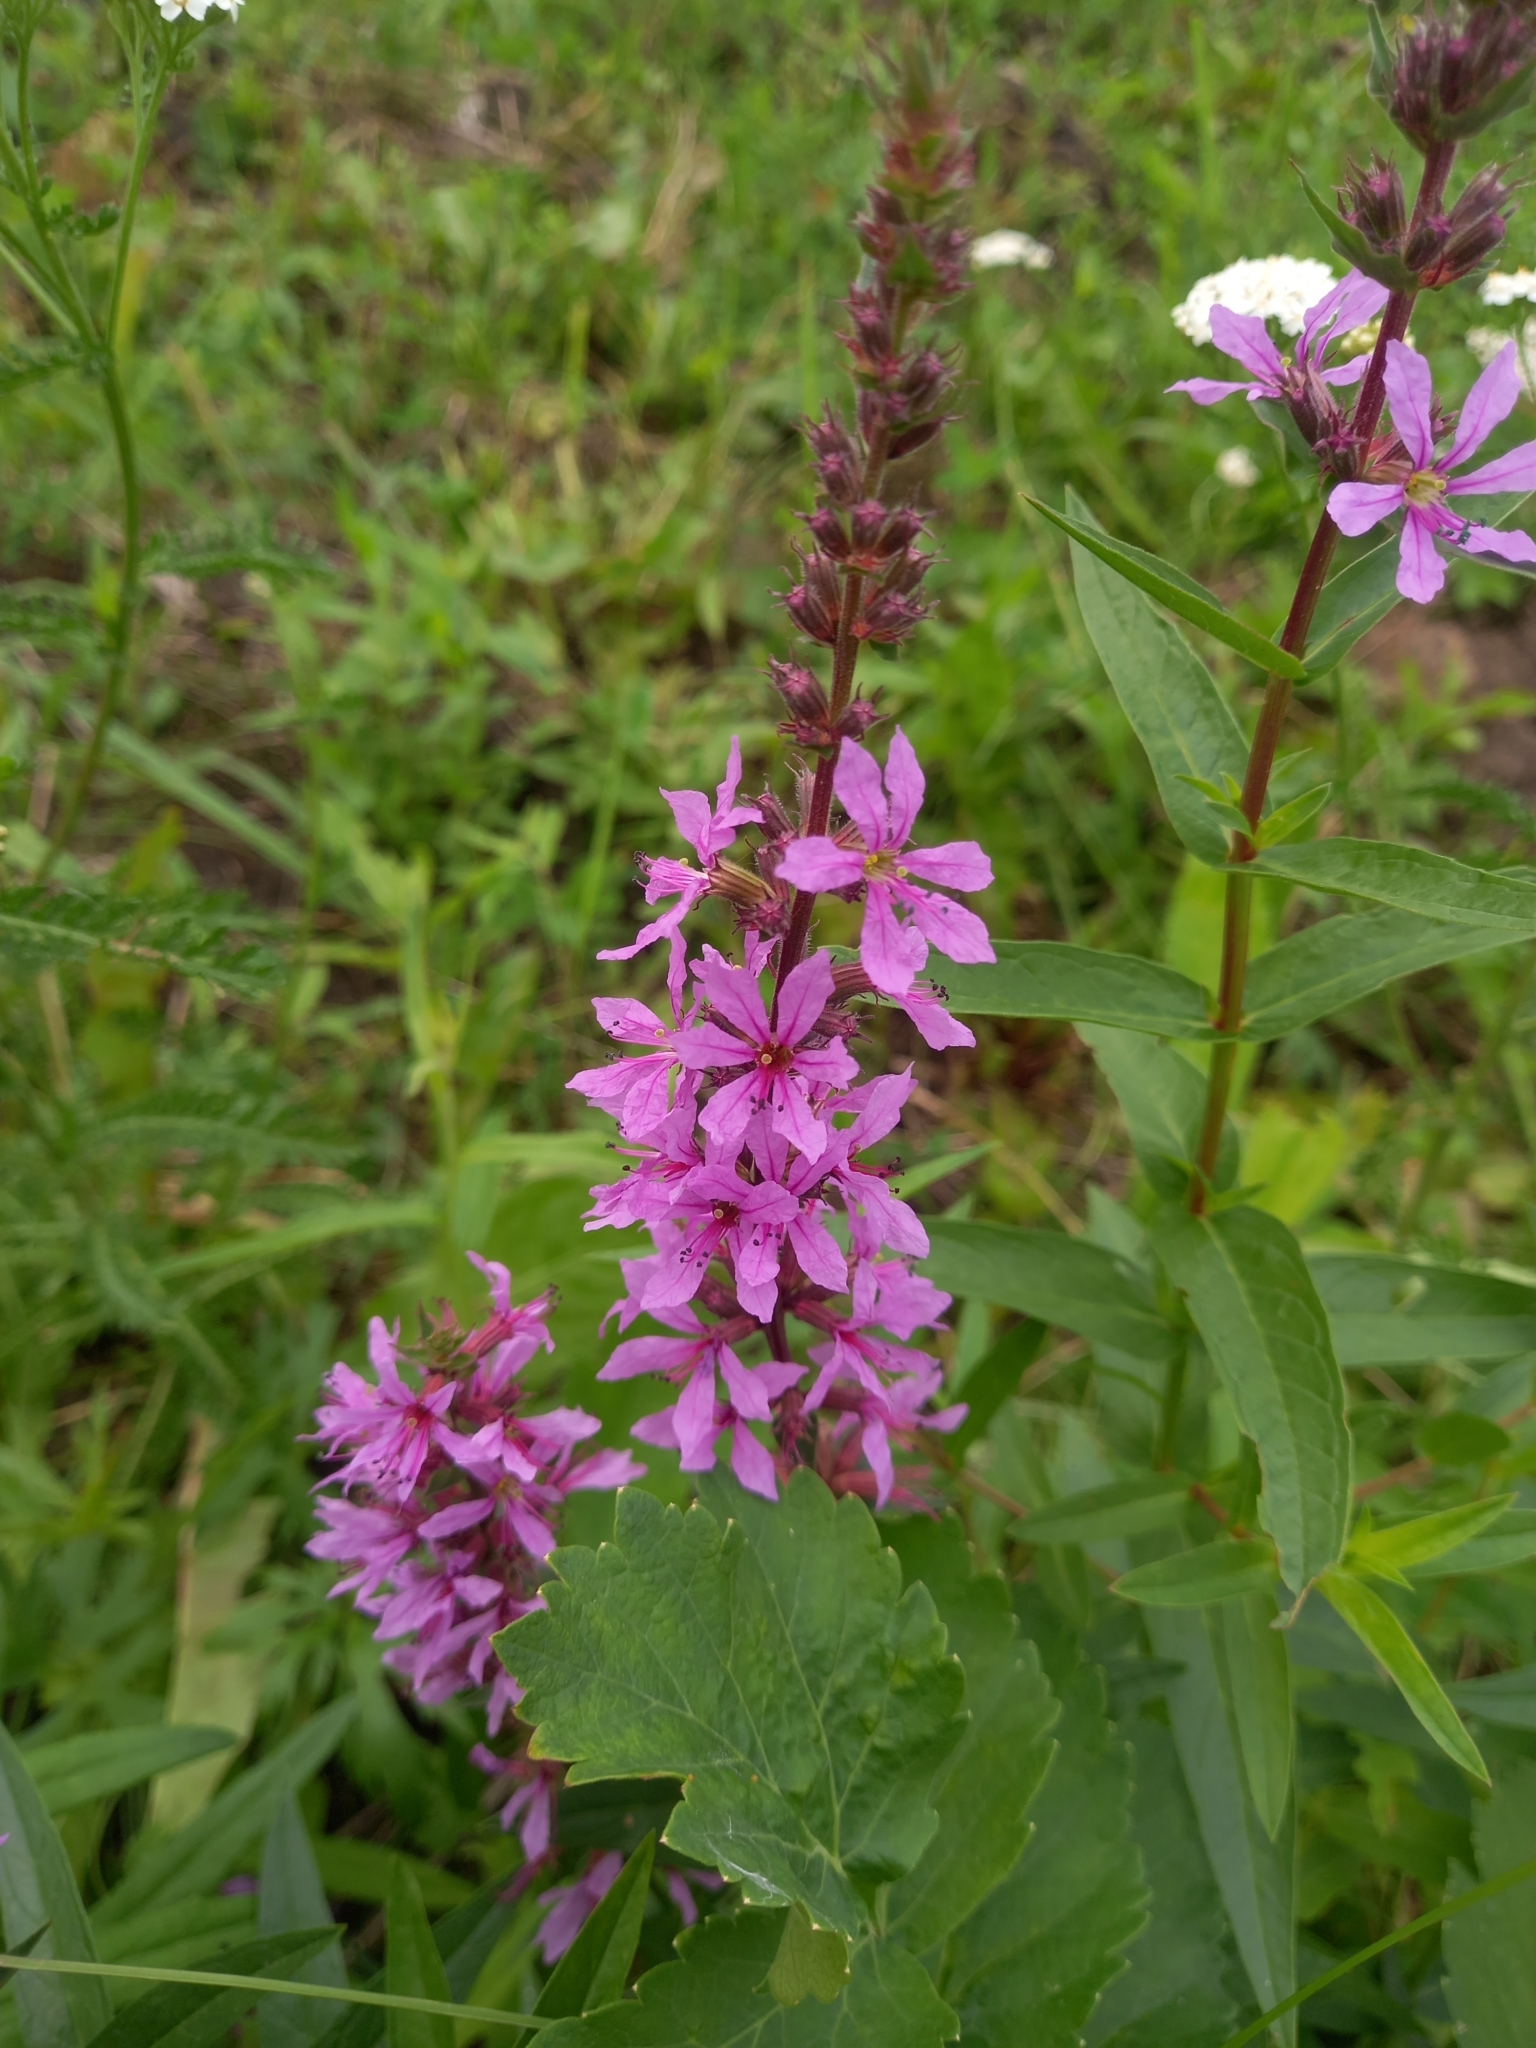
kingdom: Plantae
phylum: Tracheophyta
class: Magnoliopsida
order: Myrtales
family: Lythraceae
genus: Lythrum
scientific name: Lythrum salicaria
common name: Purple loosestrife
